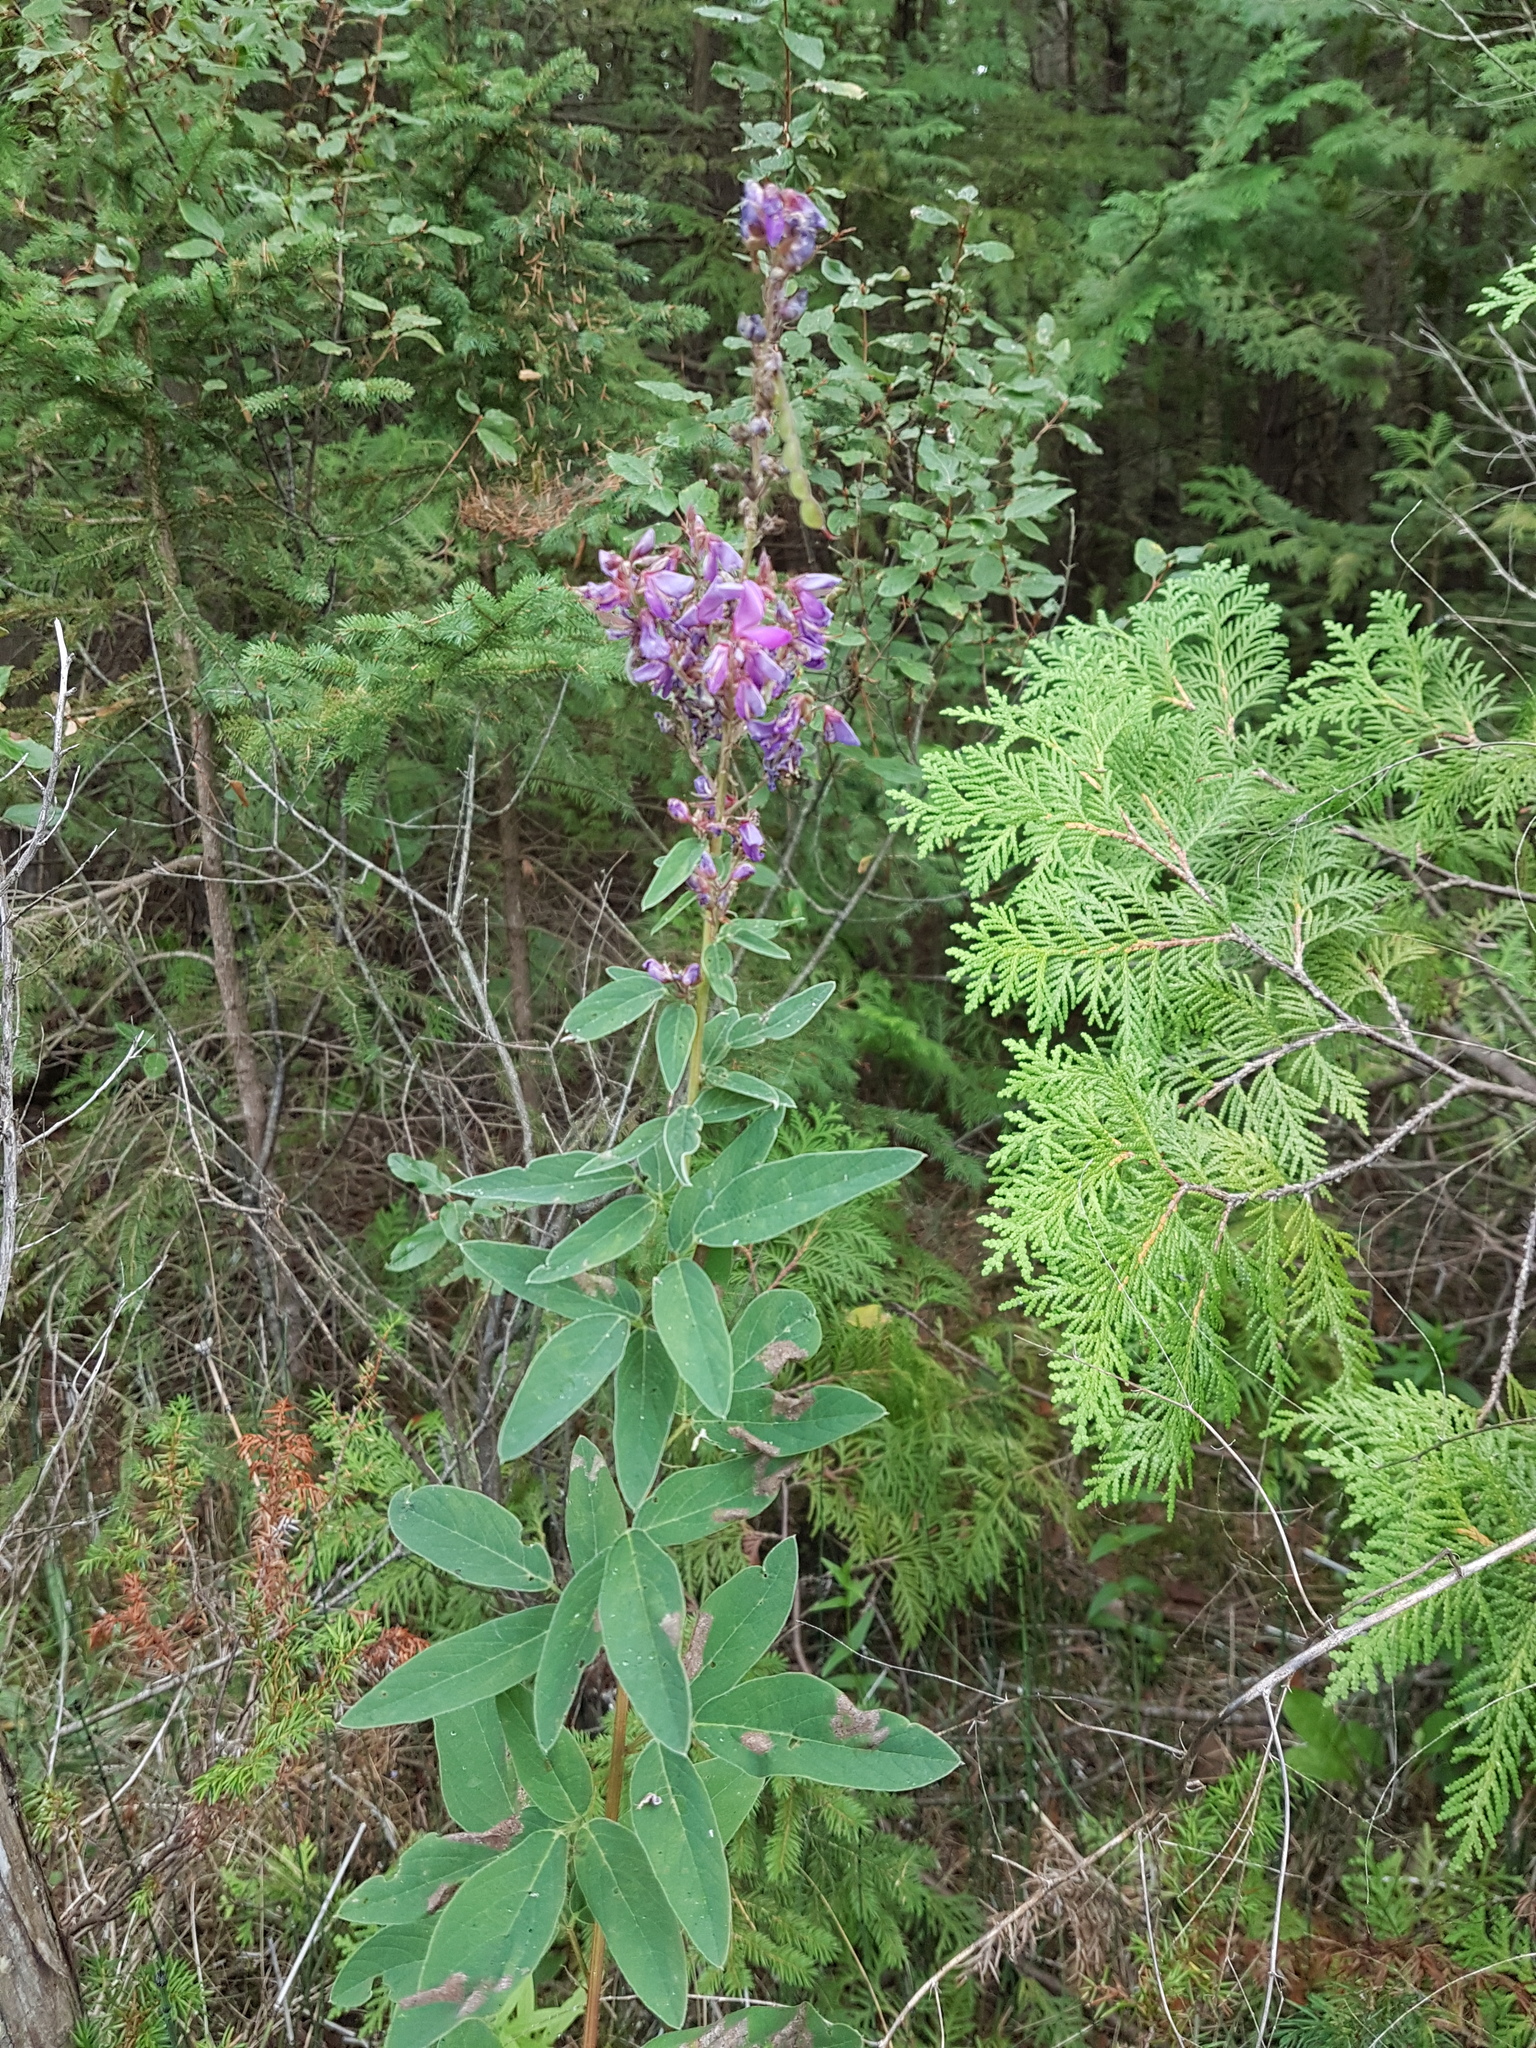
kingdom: Plantae
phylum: Tracheophyta
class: Magnoliopsida
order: Fabales
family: Fabaceae
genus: Desmodium
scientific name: Desmodium canadense
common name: Canada tick-trefoil
